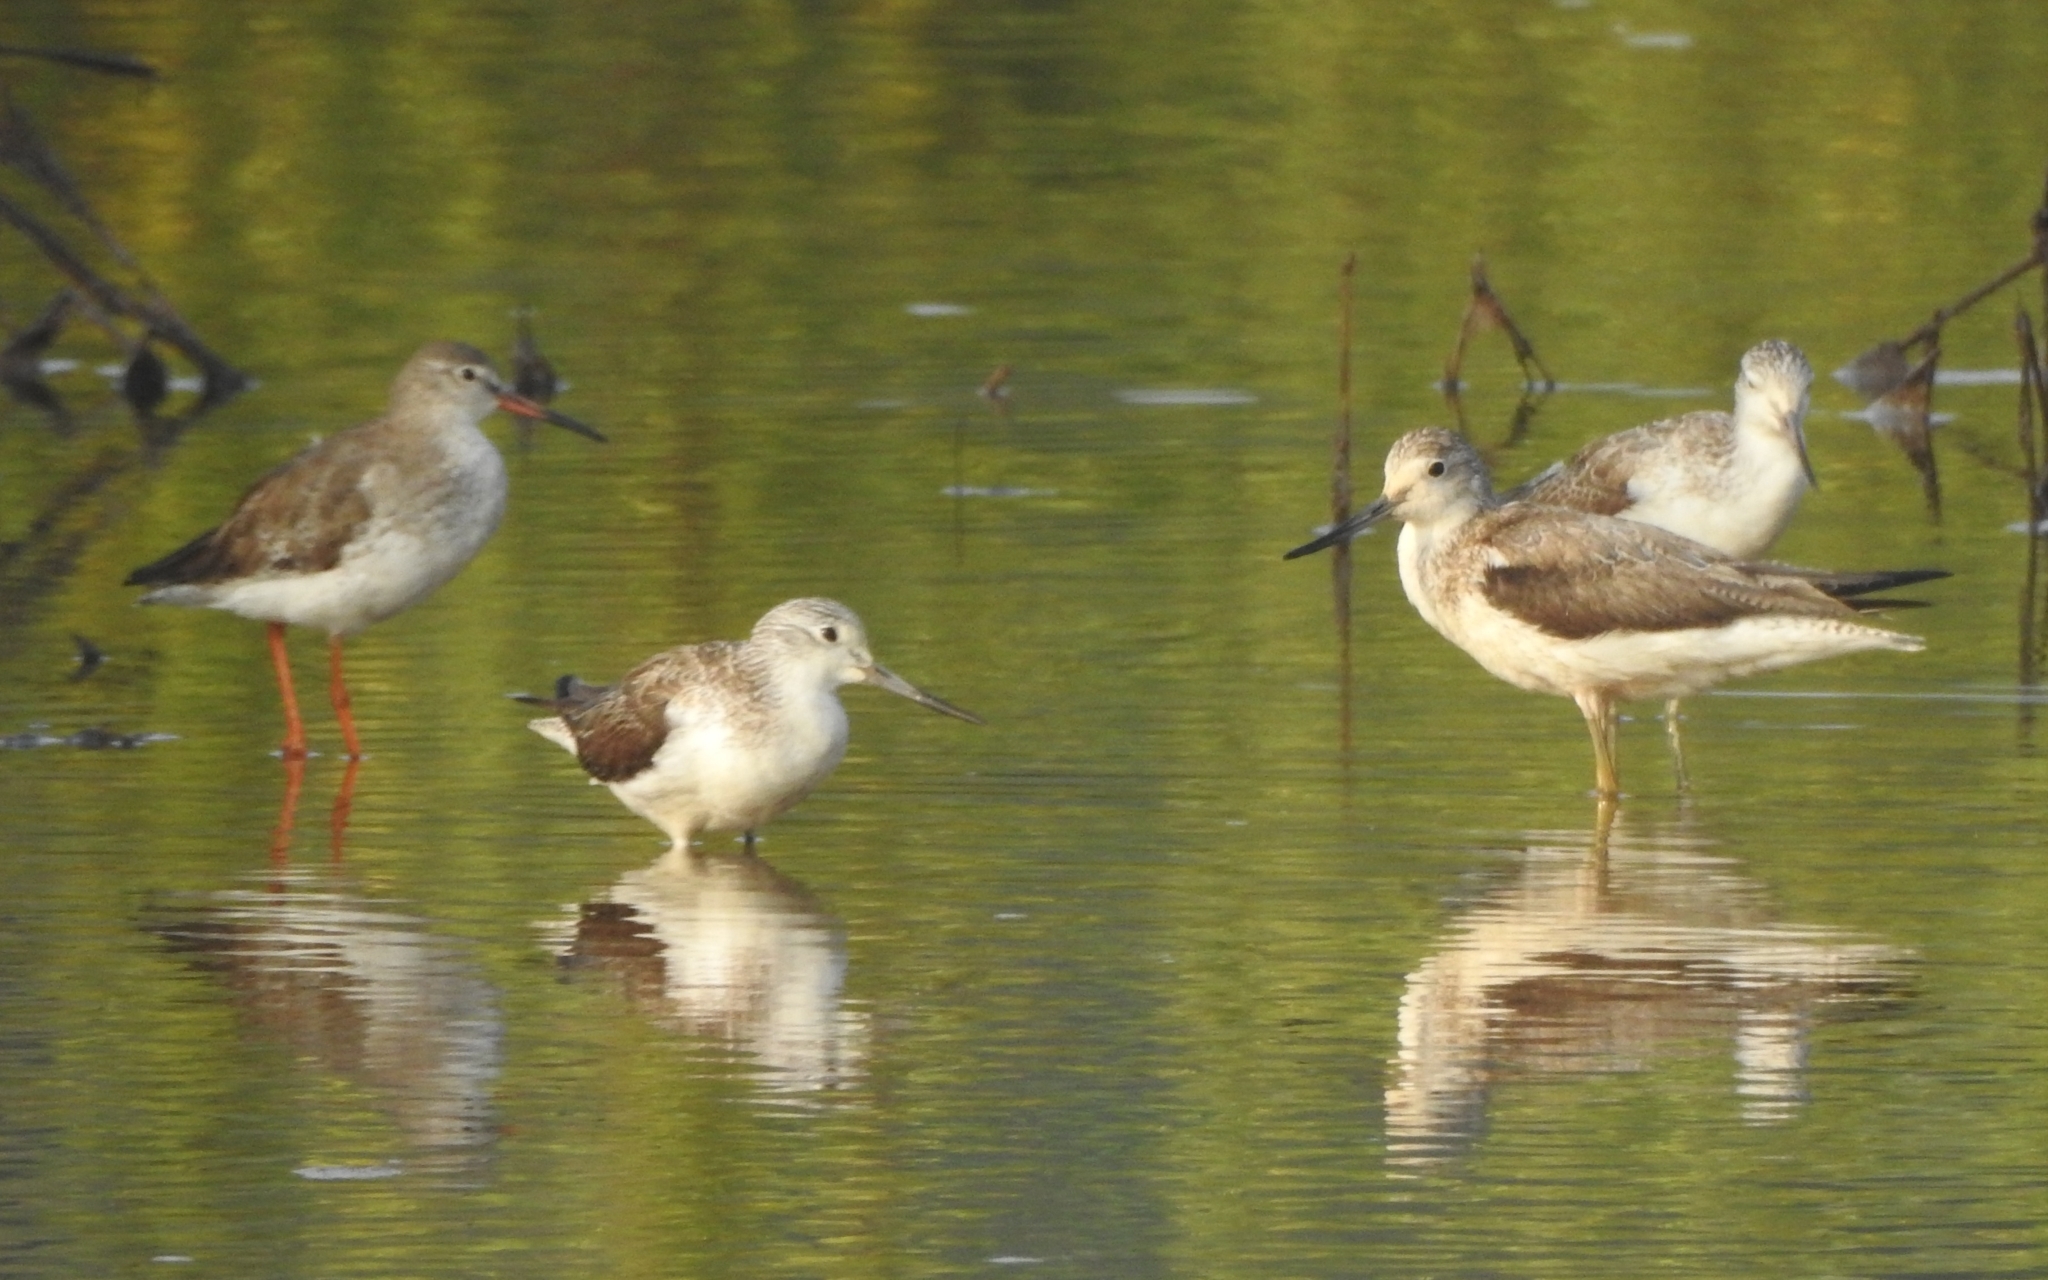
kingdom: Animalia
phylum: Chordata
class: Aves
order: Charadriiformes
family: Scolopacidae
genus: Tringa
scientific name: Tringa nebularia
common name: Common greenshank
